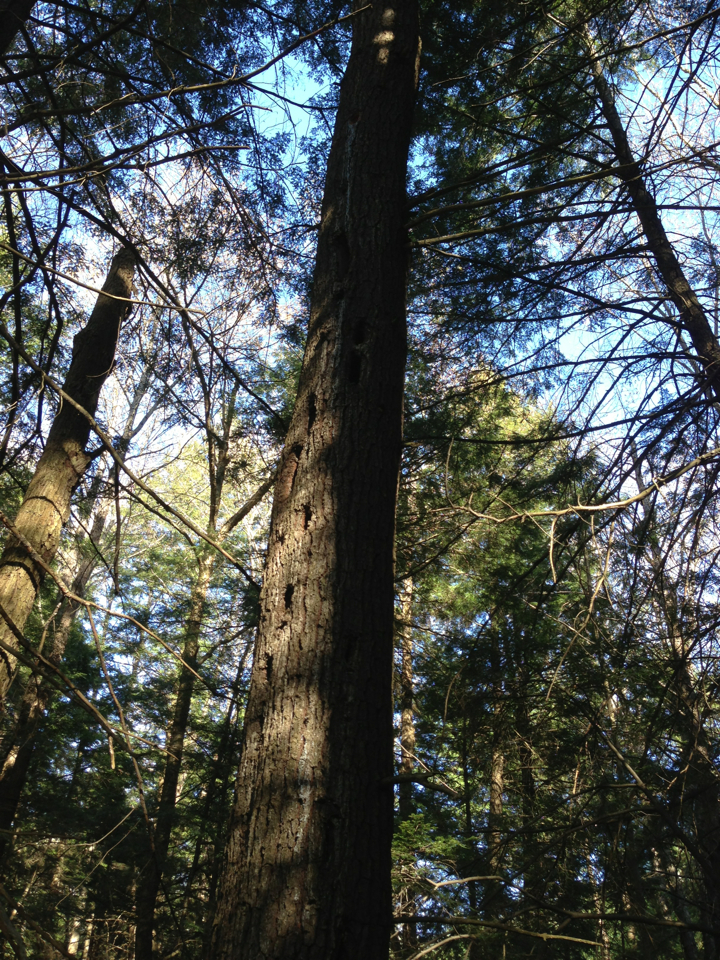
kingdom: Animalia
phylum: Chordata
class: Aves
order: Piciformes
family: Picidae
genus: Dryocopus
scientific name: Dryocopus pileatus
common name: Pileated woodpecker
